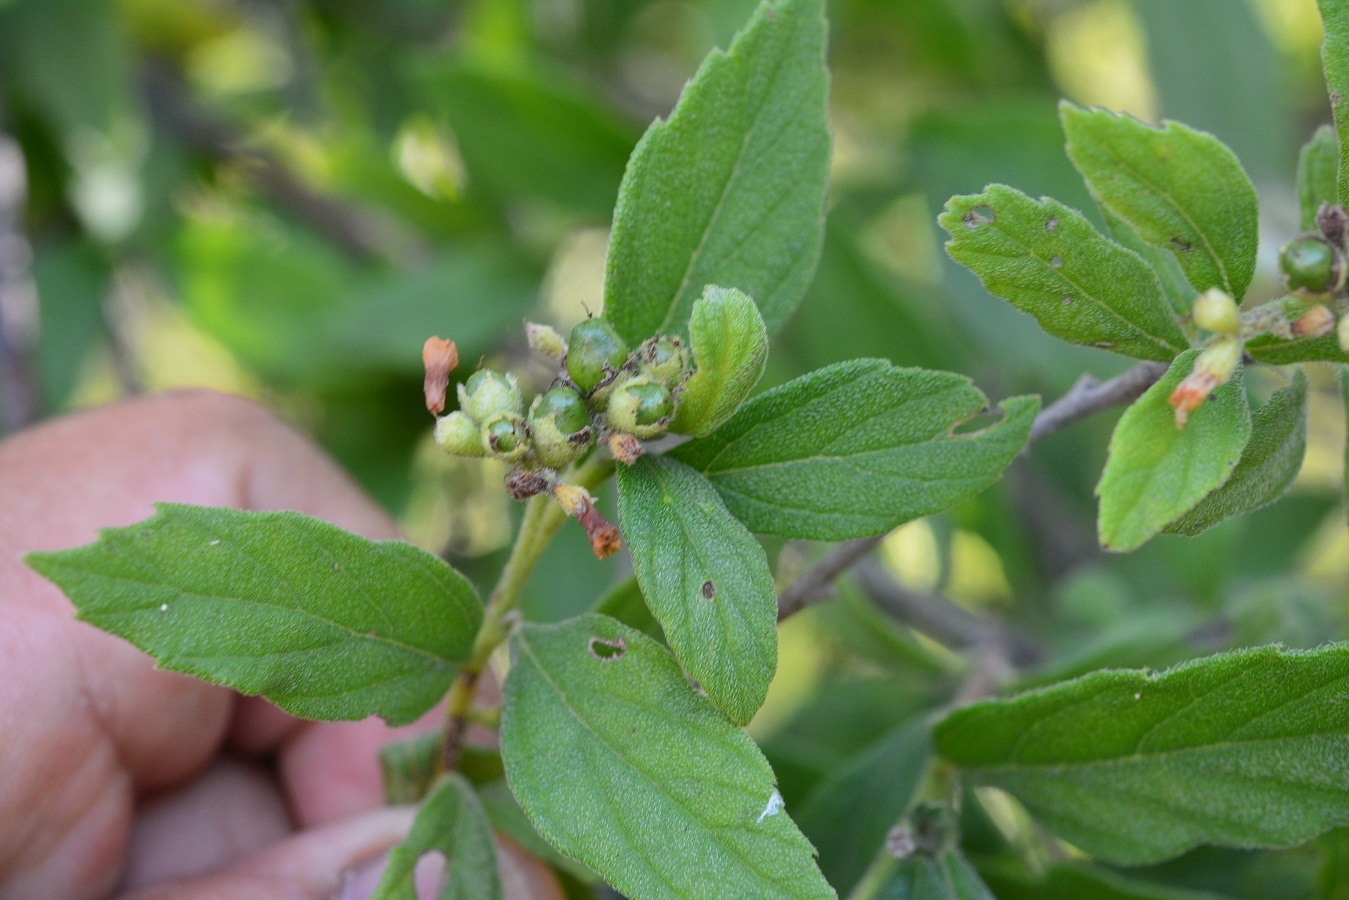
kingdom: Plantae
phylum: Tracheophyta
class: Magnoliopsida
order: Boraginales
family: Cordiaceae
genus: Varronia
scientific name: Varronia foliosa
